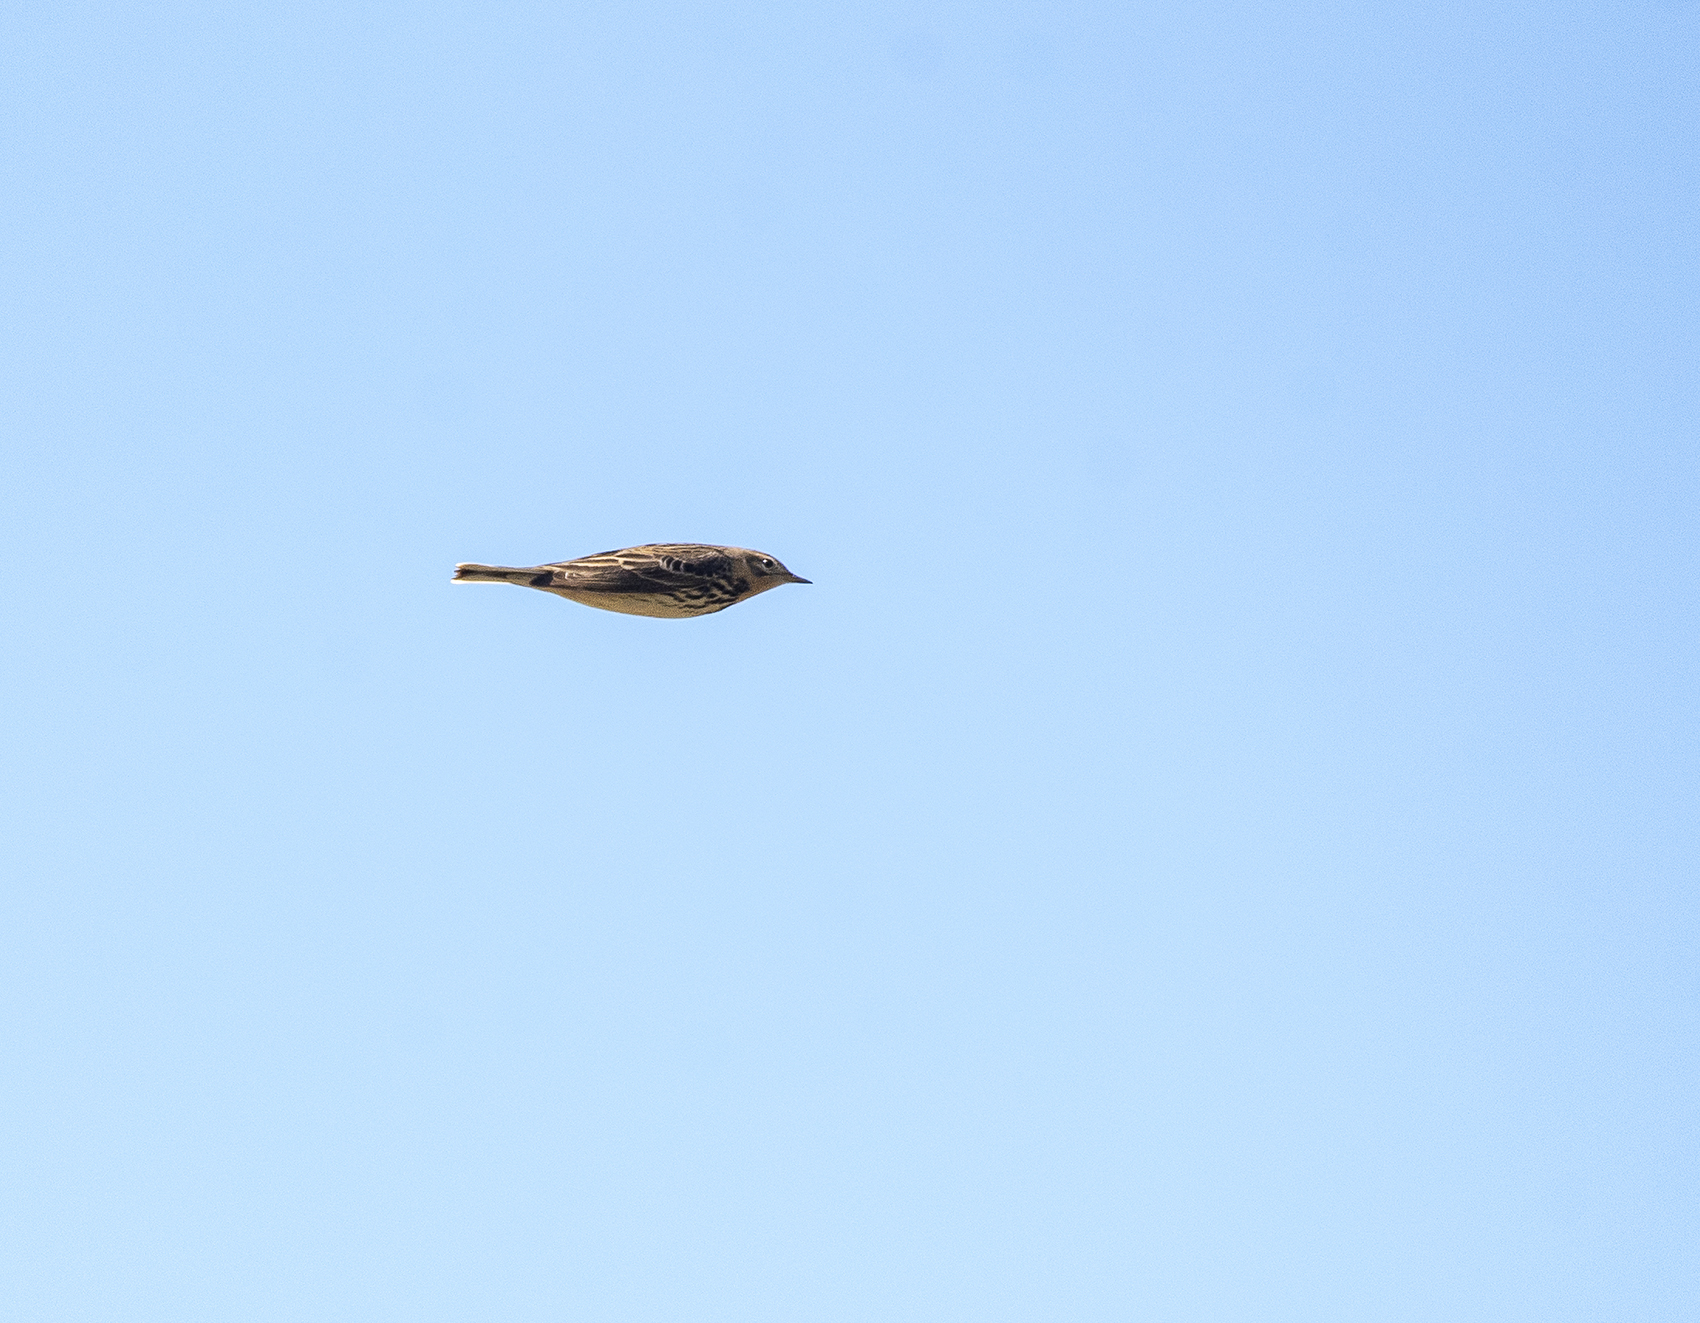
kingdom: Animalia
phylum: Chordata
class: Aves
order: Passeriformes
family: Motacillidae
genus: Anthus
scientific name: Anthus cervinus
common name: Red-throated pipit
